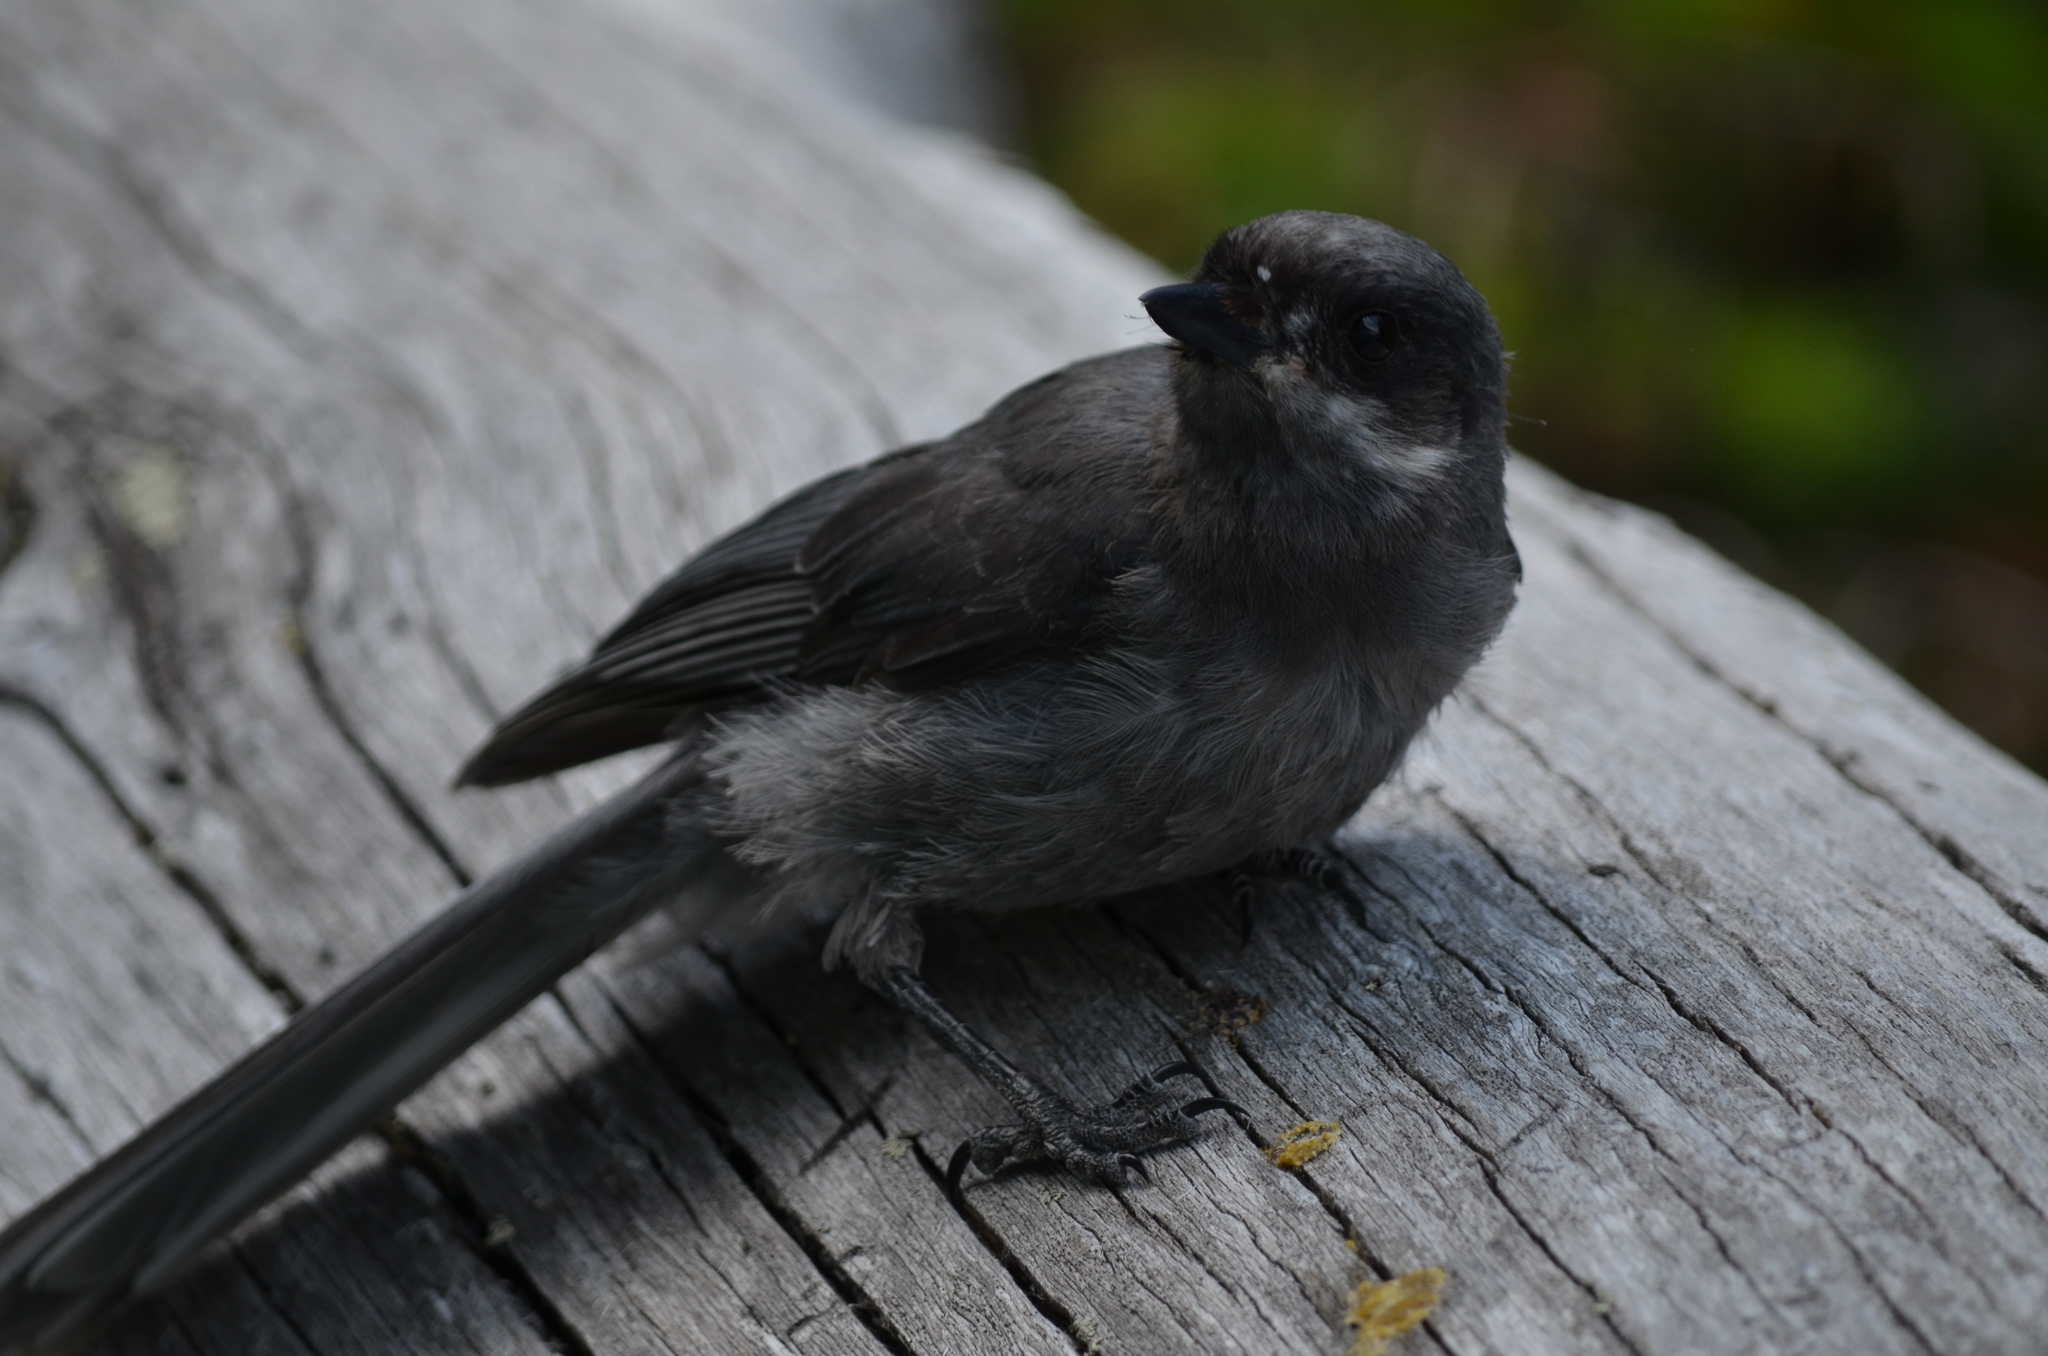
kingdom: Animalia
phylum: Chordata
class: Aves
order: Passeriformes
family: Corvidae
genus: Perisoreus
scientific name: Perisoreus canadensis
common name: Gray jay
